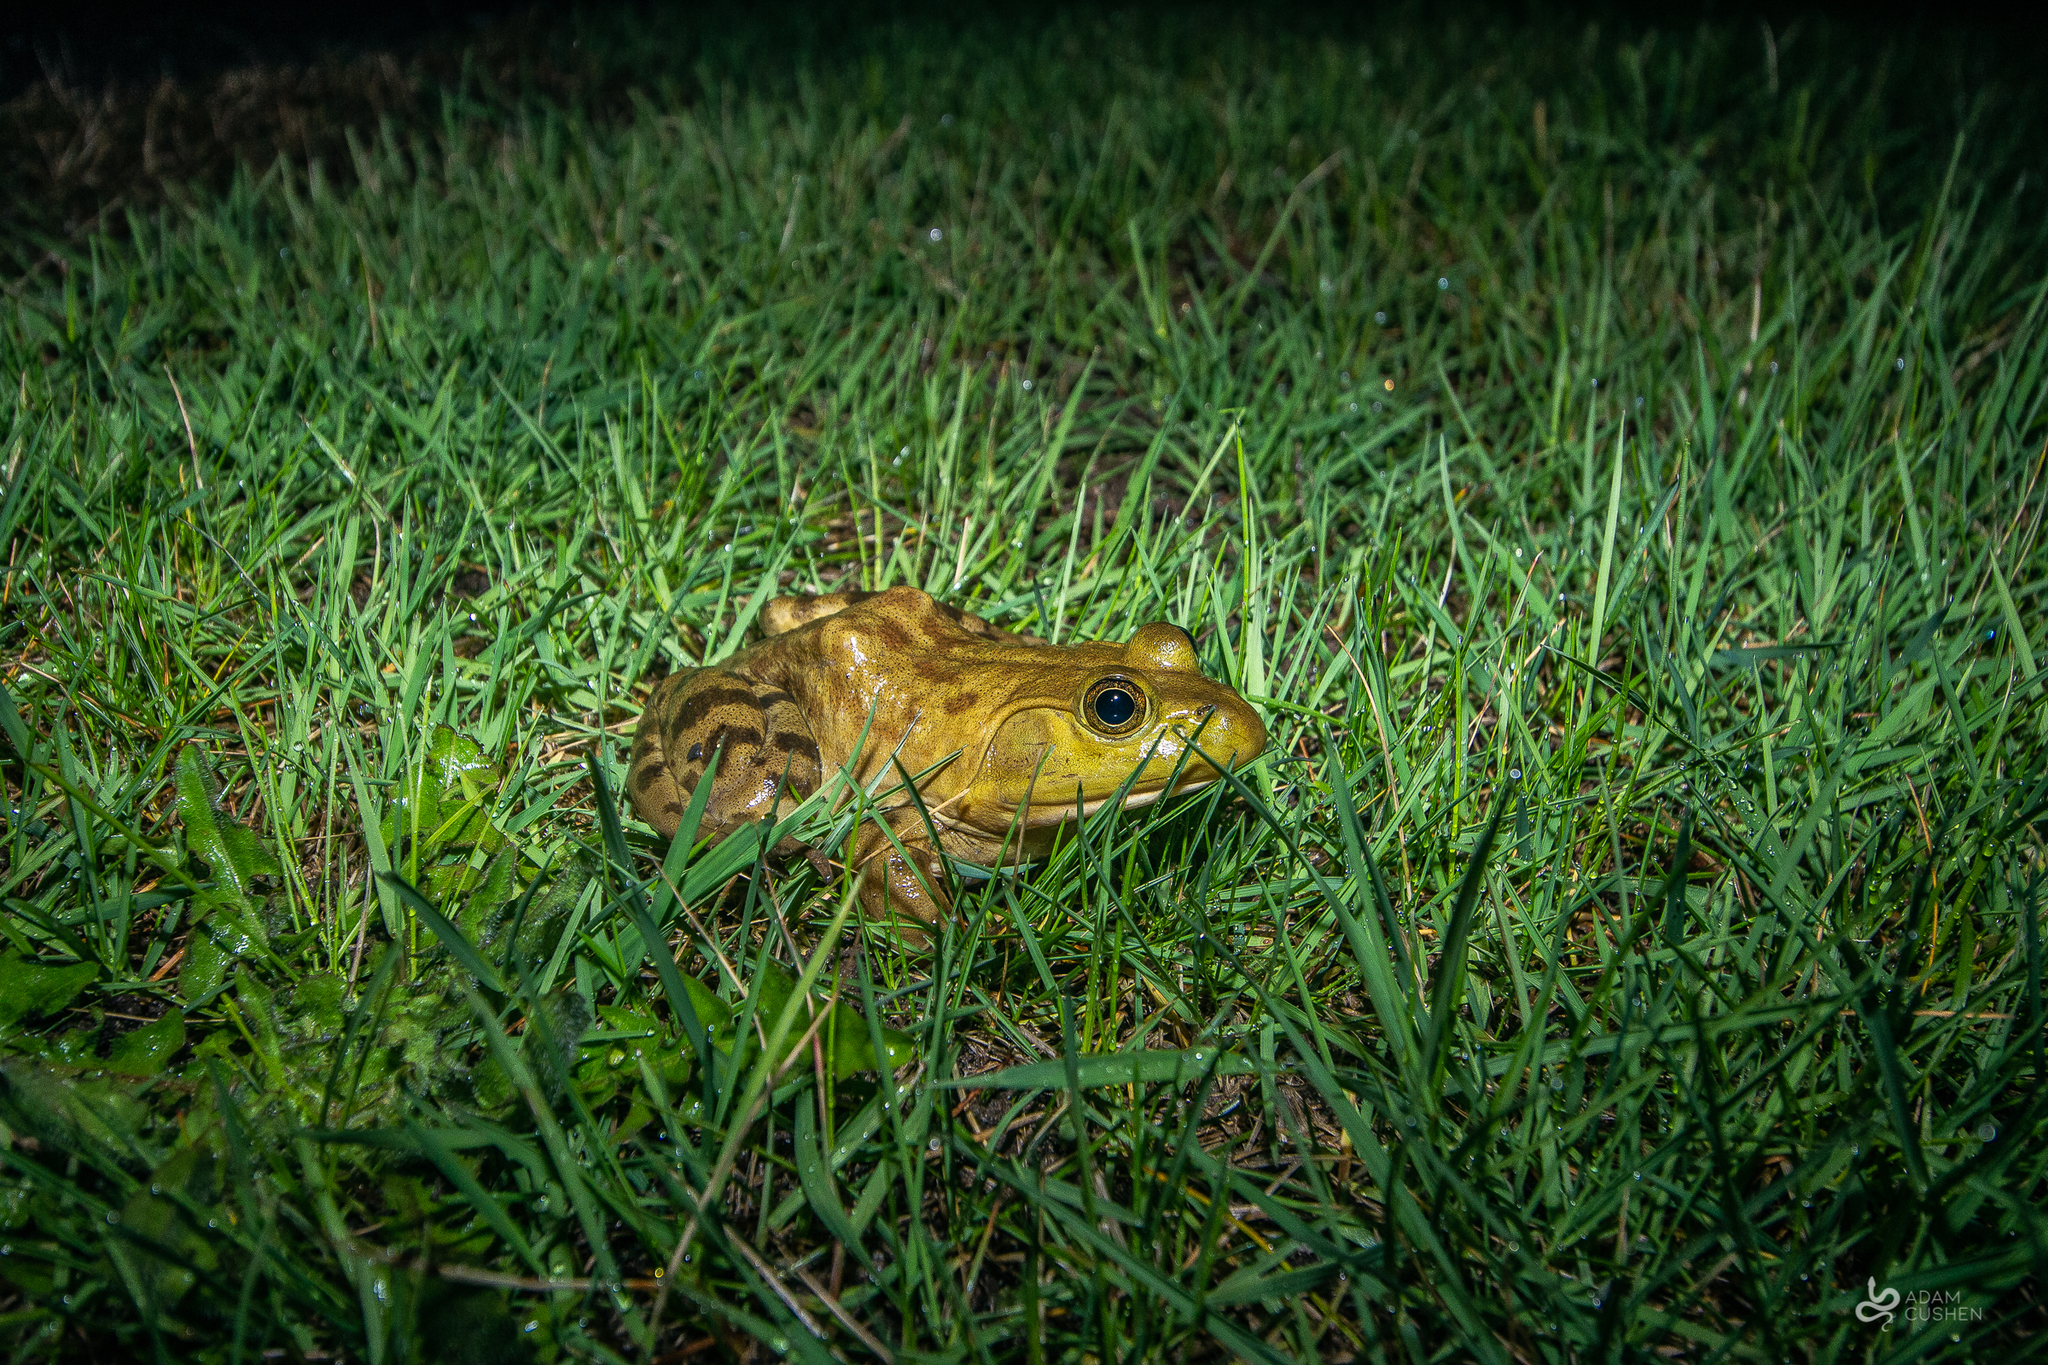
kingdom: Animalia
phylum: Chordata
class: Amphibia
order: Anura
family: Ranidae
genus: Lithobates
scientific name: Lithobates catesbeianus
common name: American bullfrog
